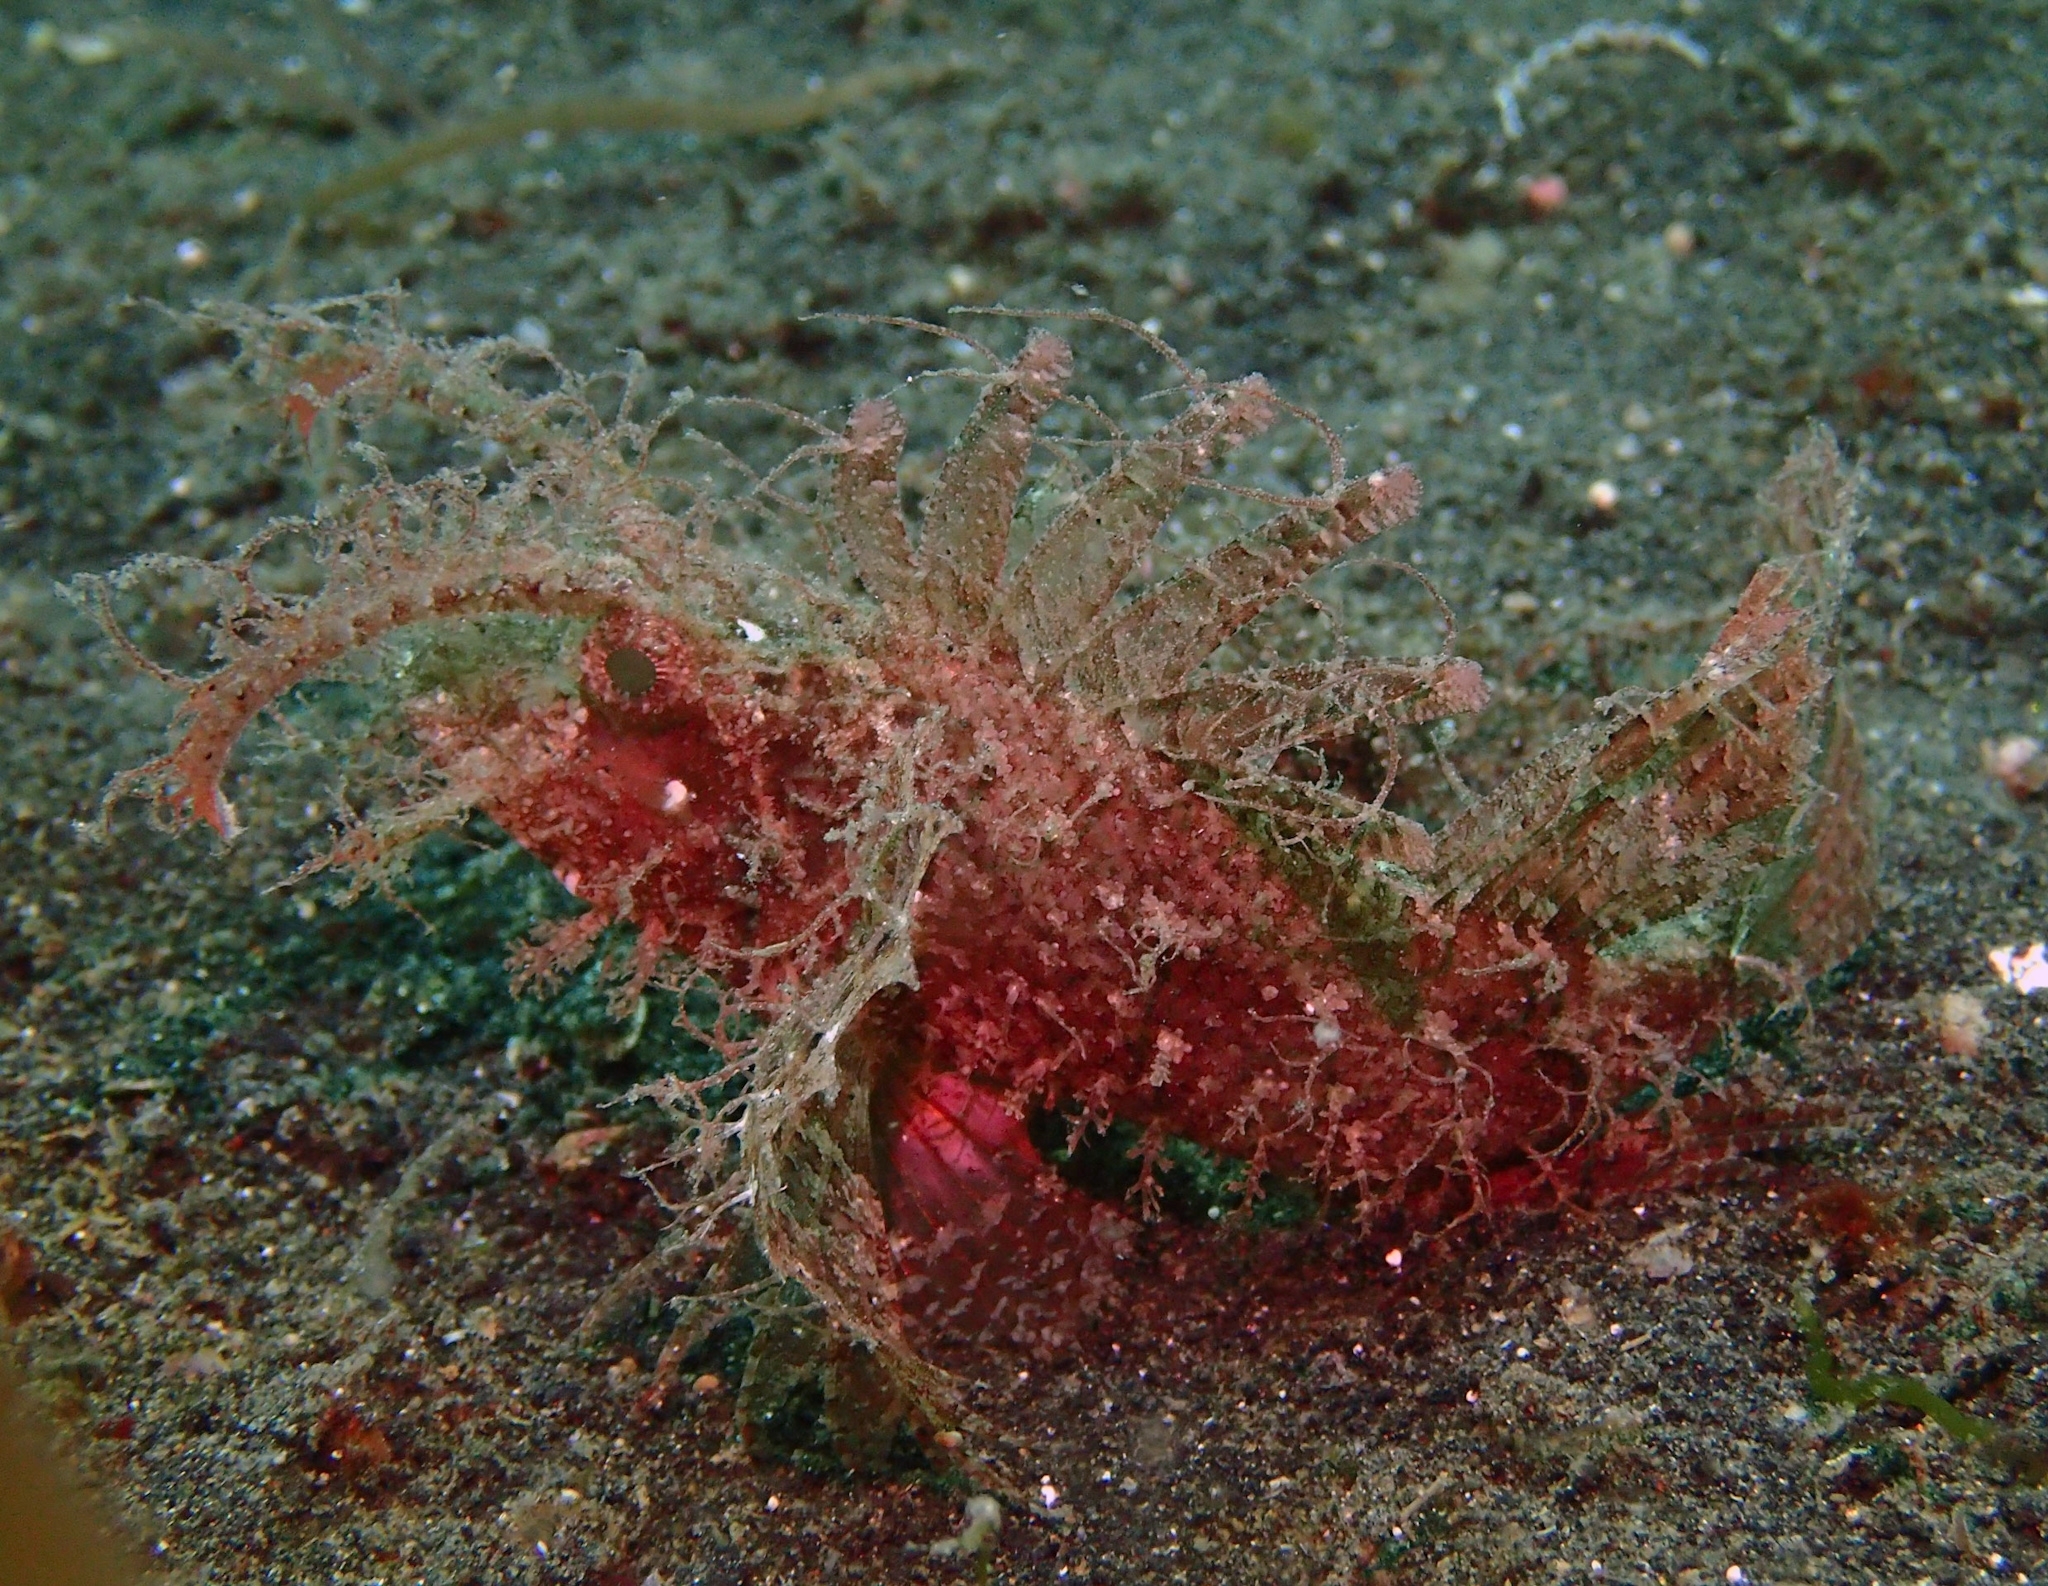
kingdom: Animalia
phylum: Chordata
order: Scorpaeniformes
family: Scorpaenidae
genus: Pteroidichthys
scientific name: Pteroidichthys amboinensis
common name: Ambon scorpionfish
